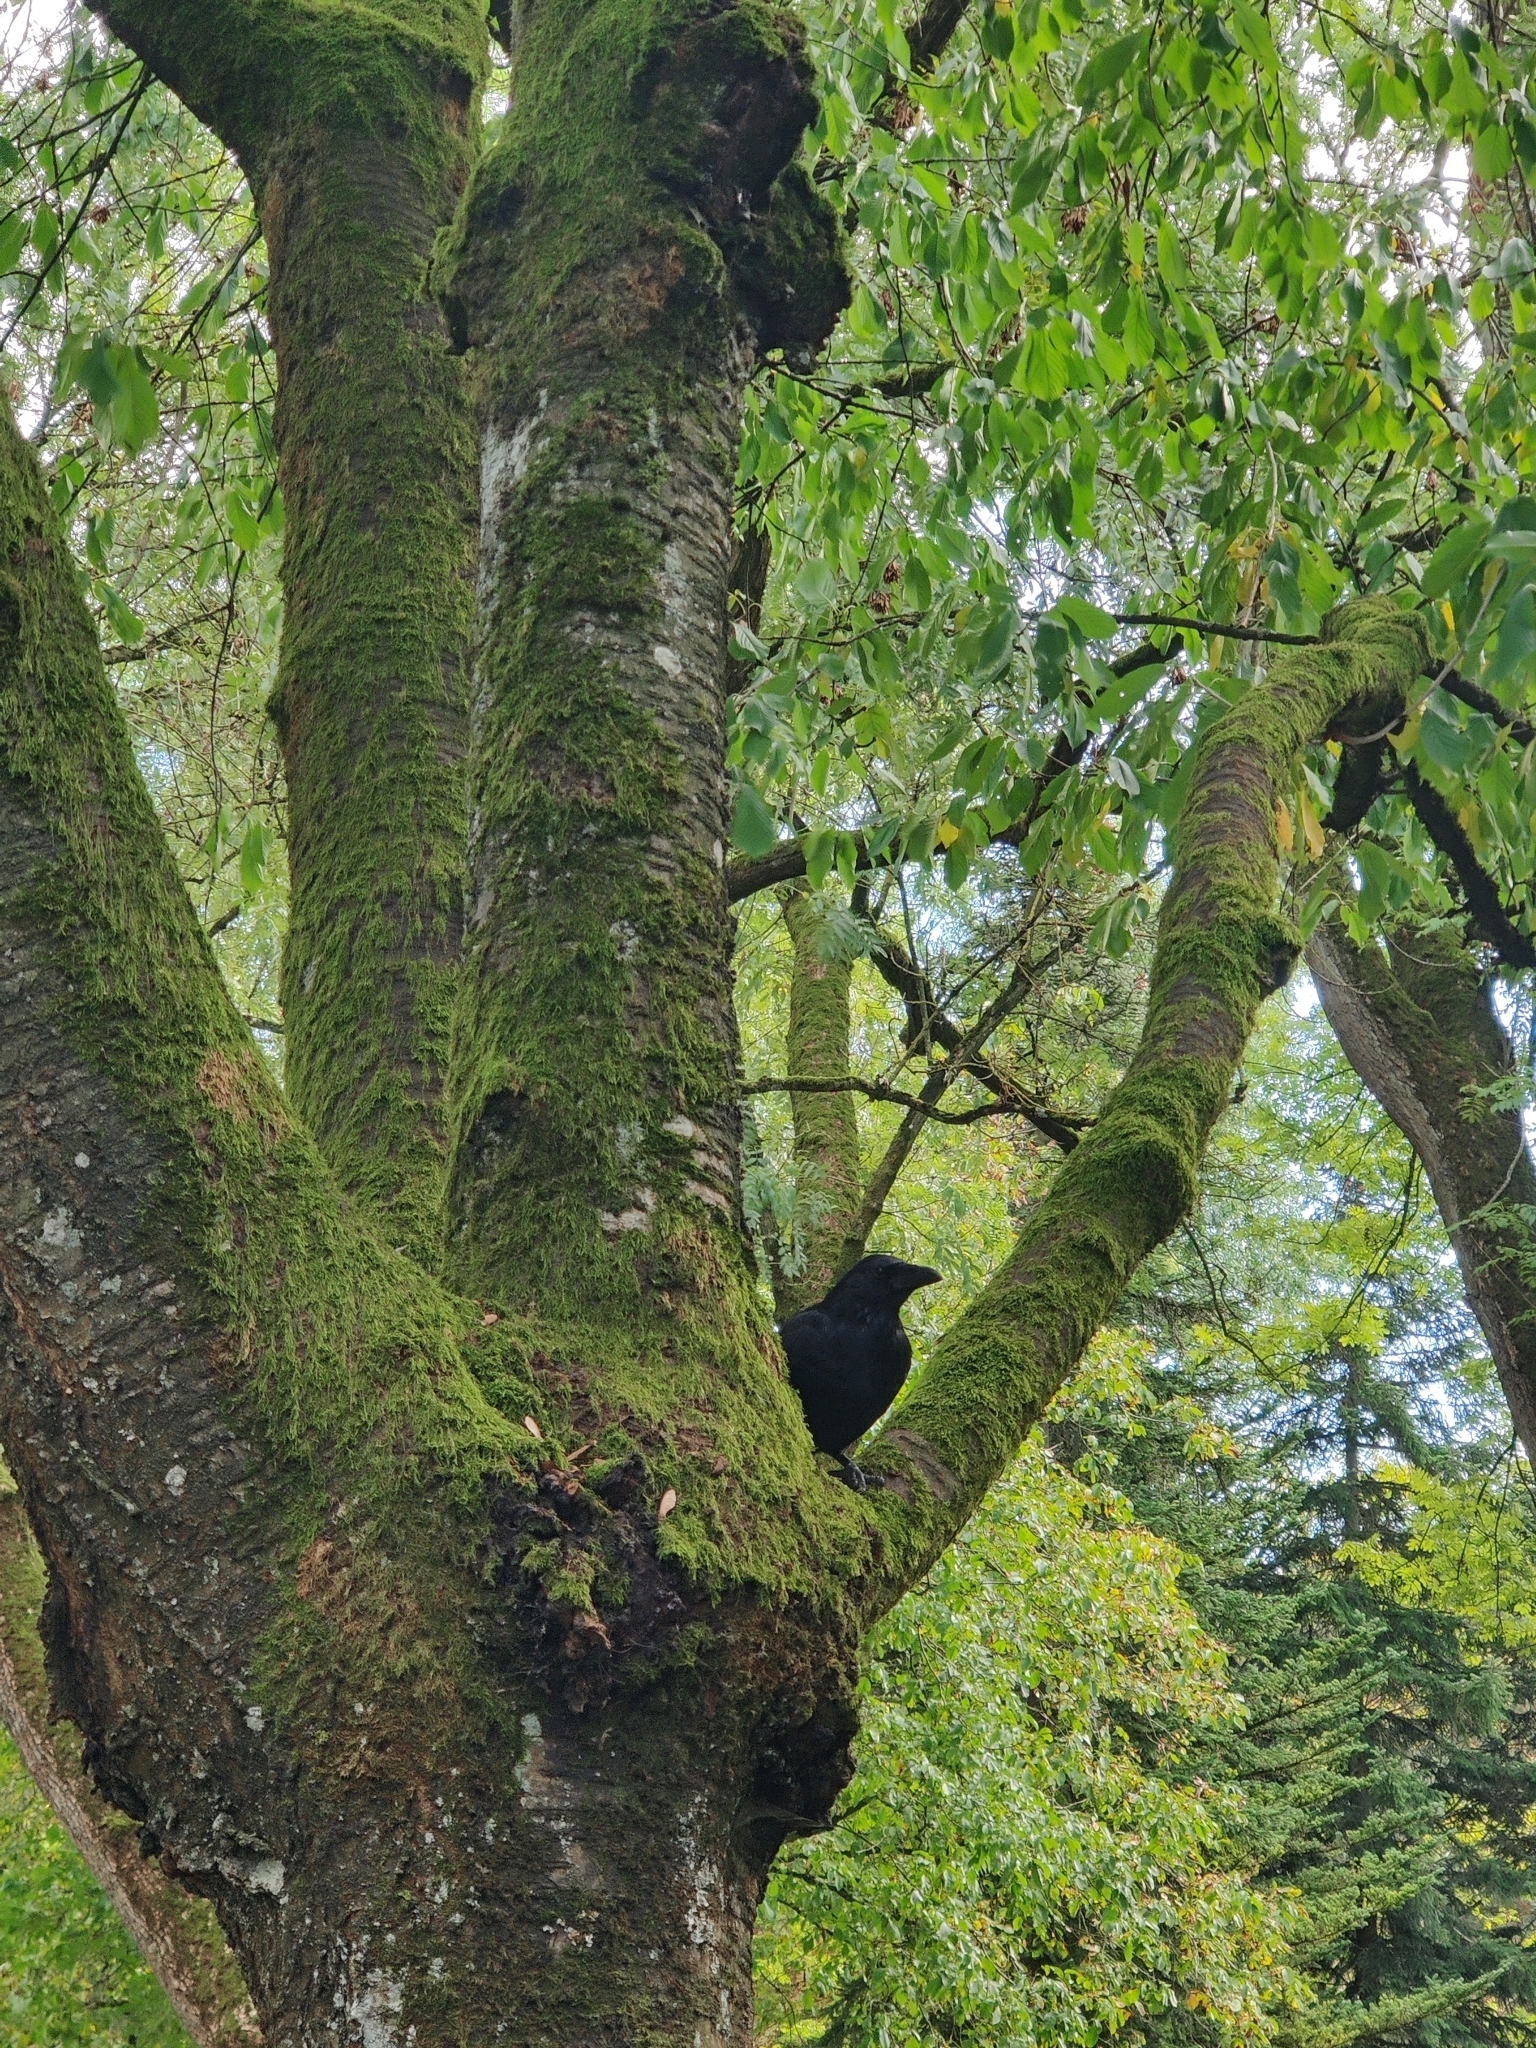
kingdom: Animalia
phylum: Chordata
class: Aves
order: Passeriformes
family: Corvidae
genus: Corvus
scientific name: Corvus corone
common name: Carrion crow
